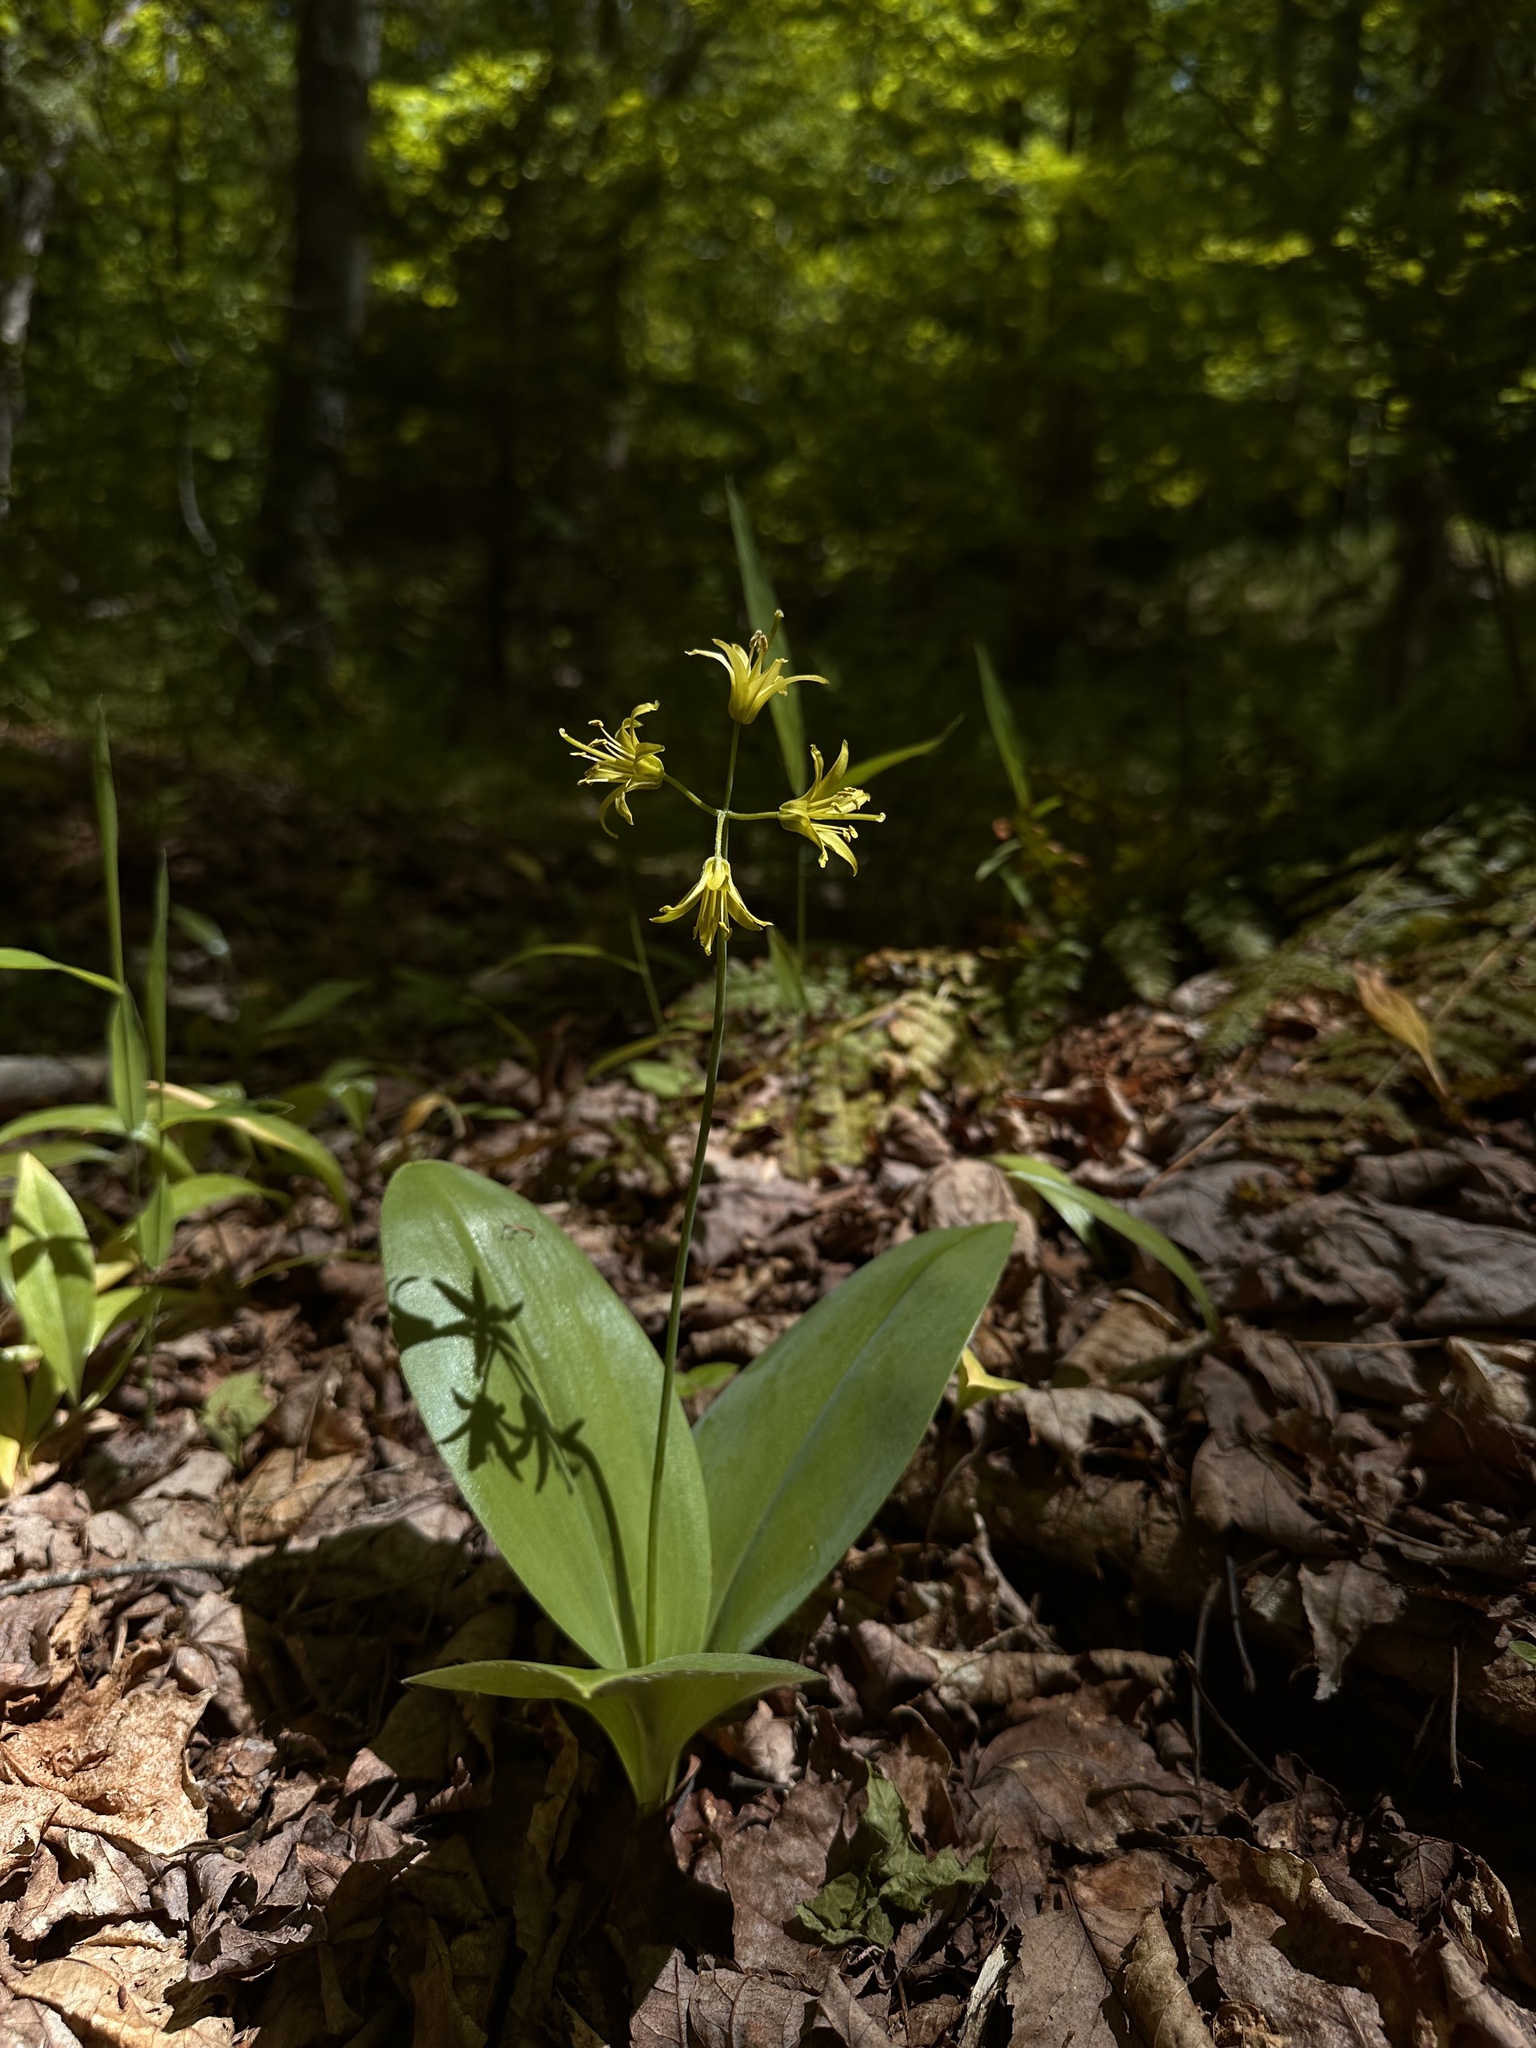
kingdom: Plantae
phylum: Tracheophyta
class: Liliopsida
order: Liliales
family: Liliaceae
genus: Clintonia
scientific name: Clintonia borealis
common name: Yellow clintonia
